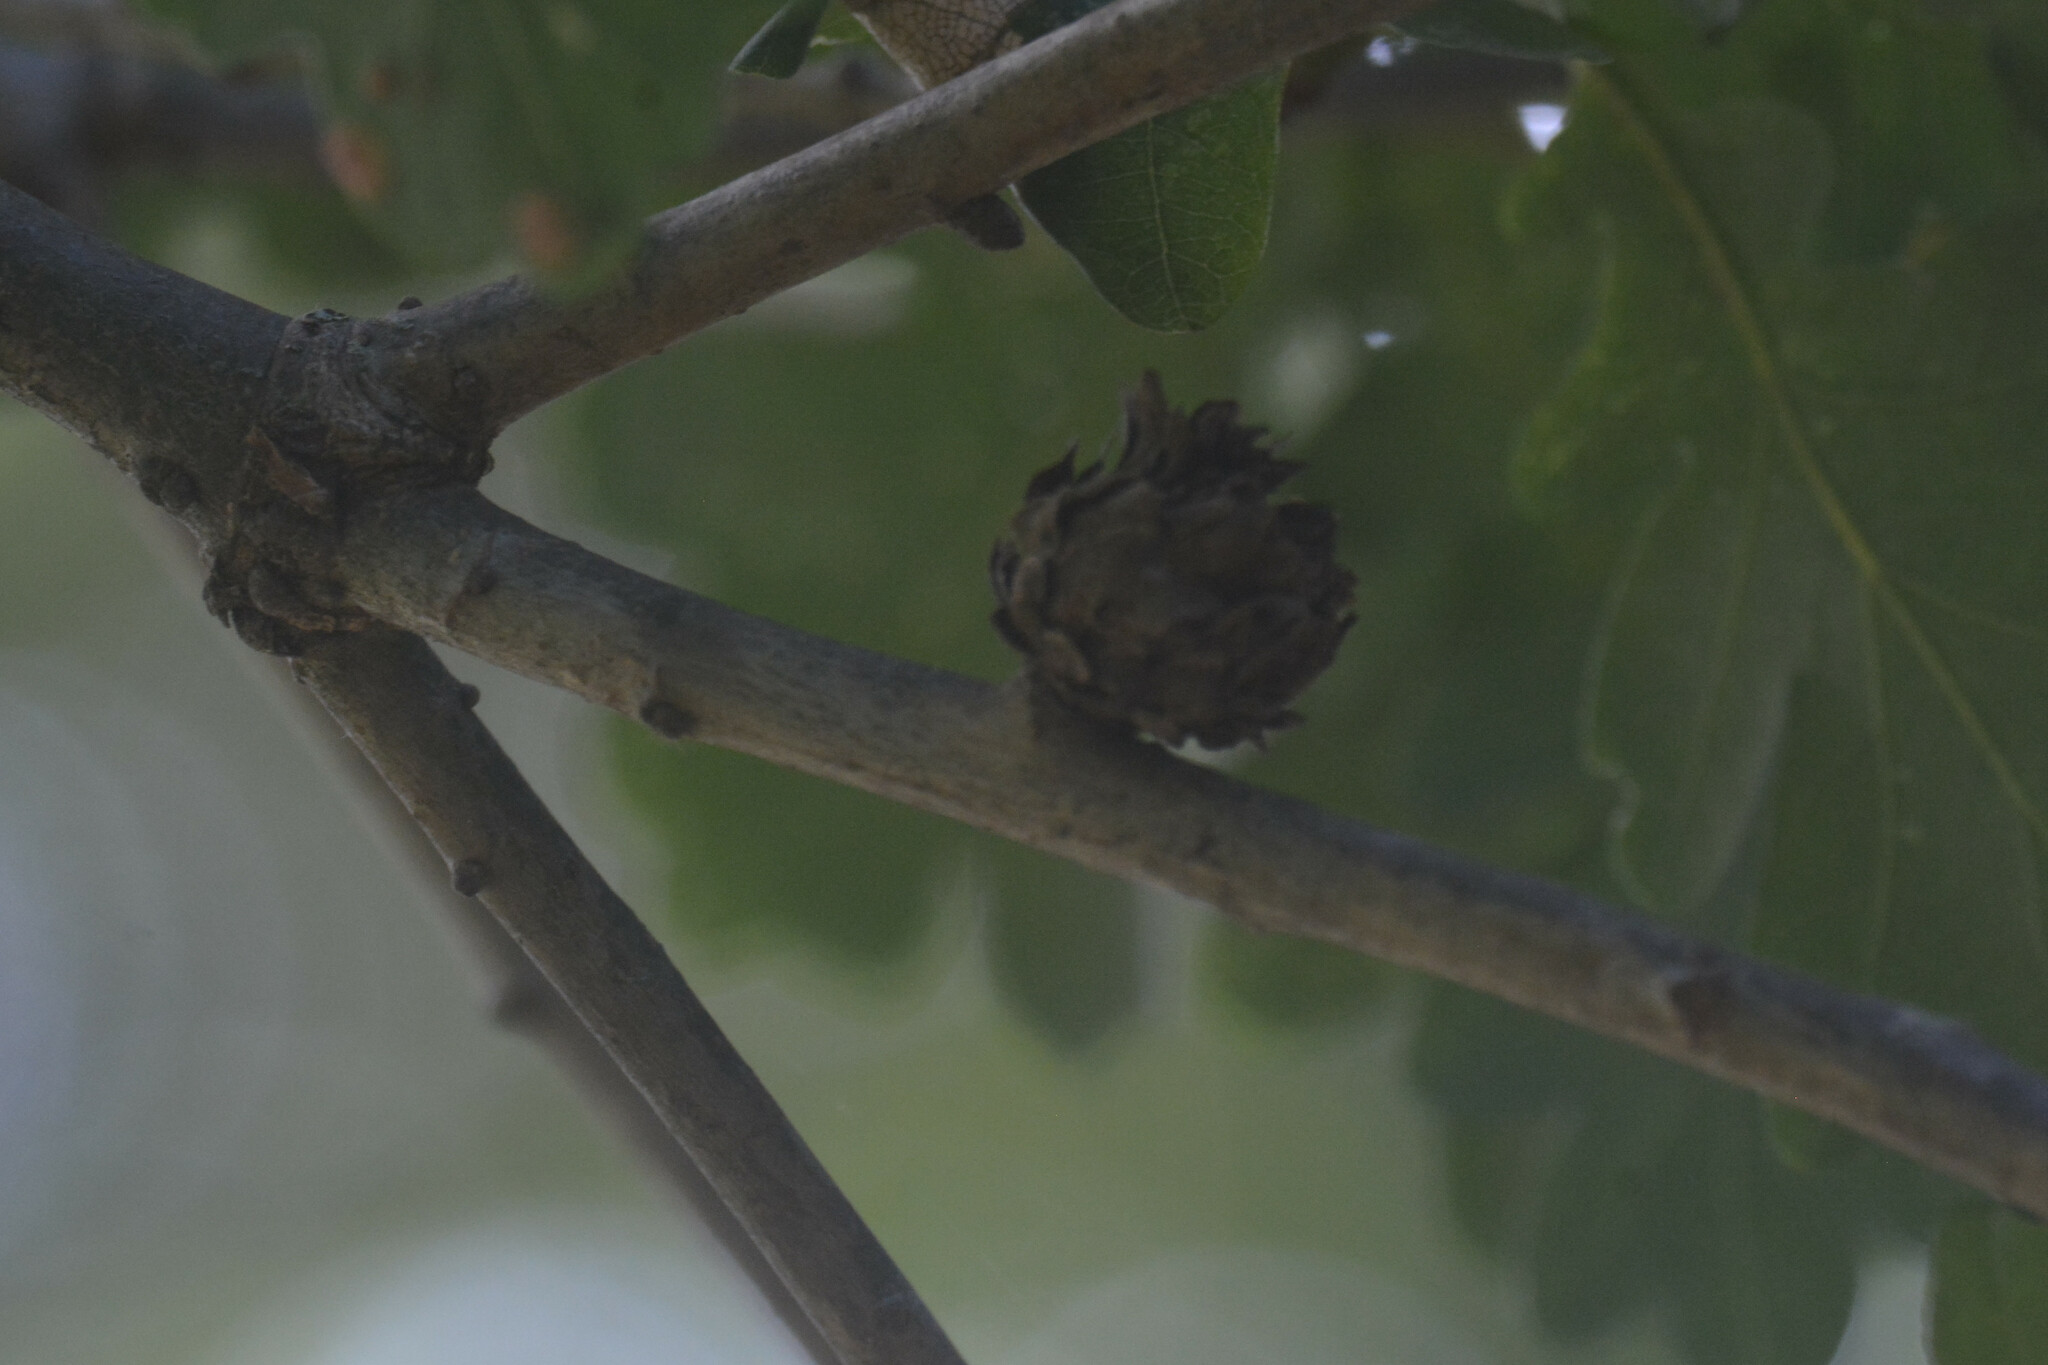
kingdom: Animalia
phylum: Arthropoda
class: Insecta
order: Hymenoptera
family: Cynipidae
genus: Andricus
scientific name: Andricus foecundatrix
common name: Artichoke gall
